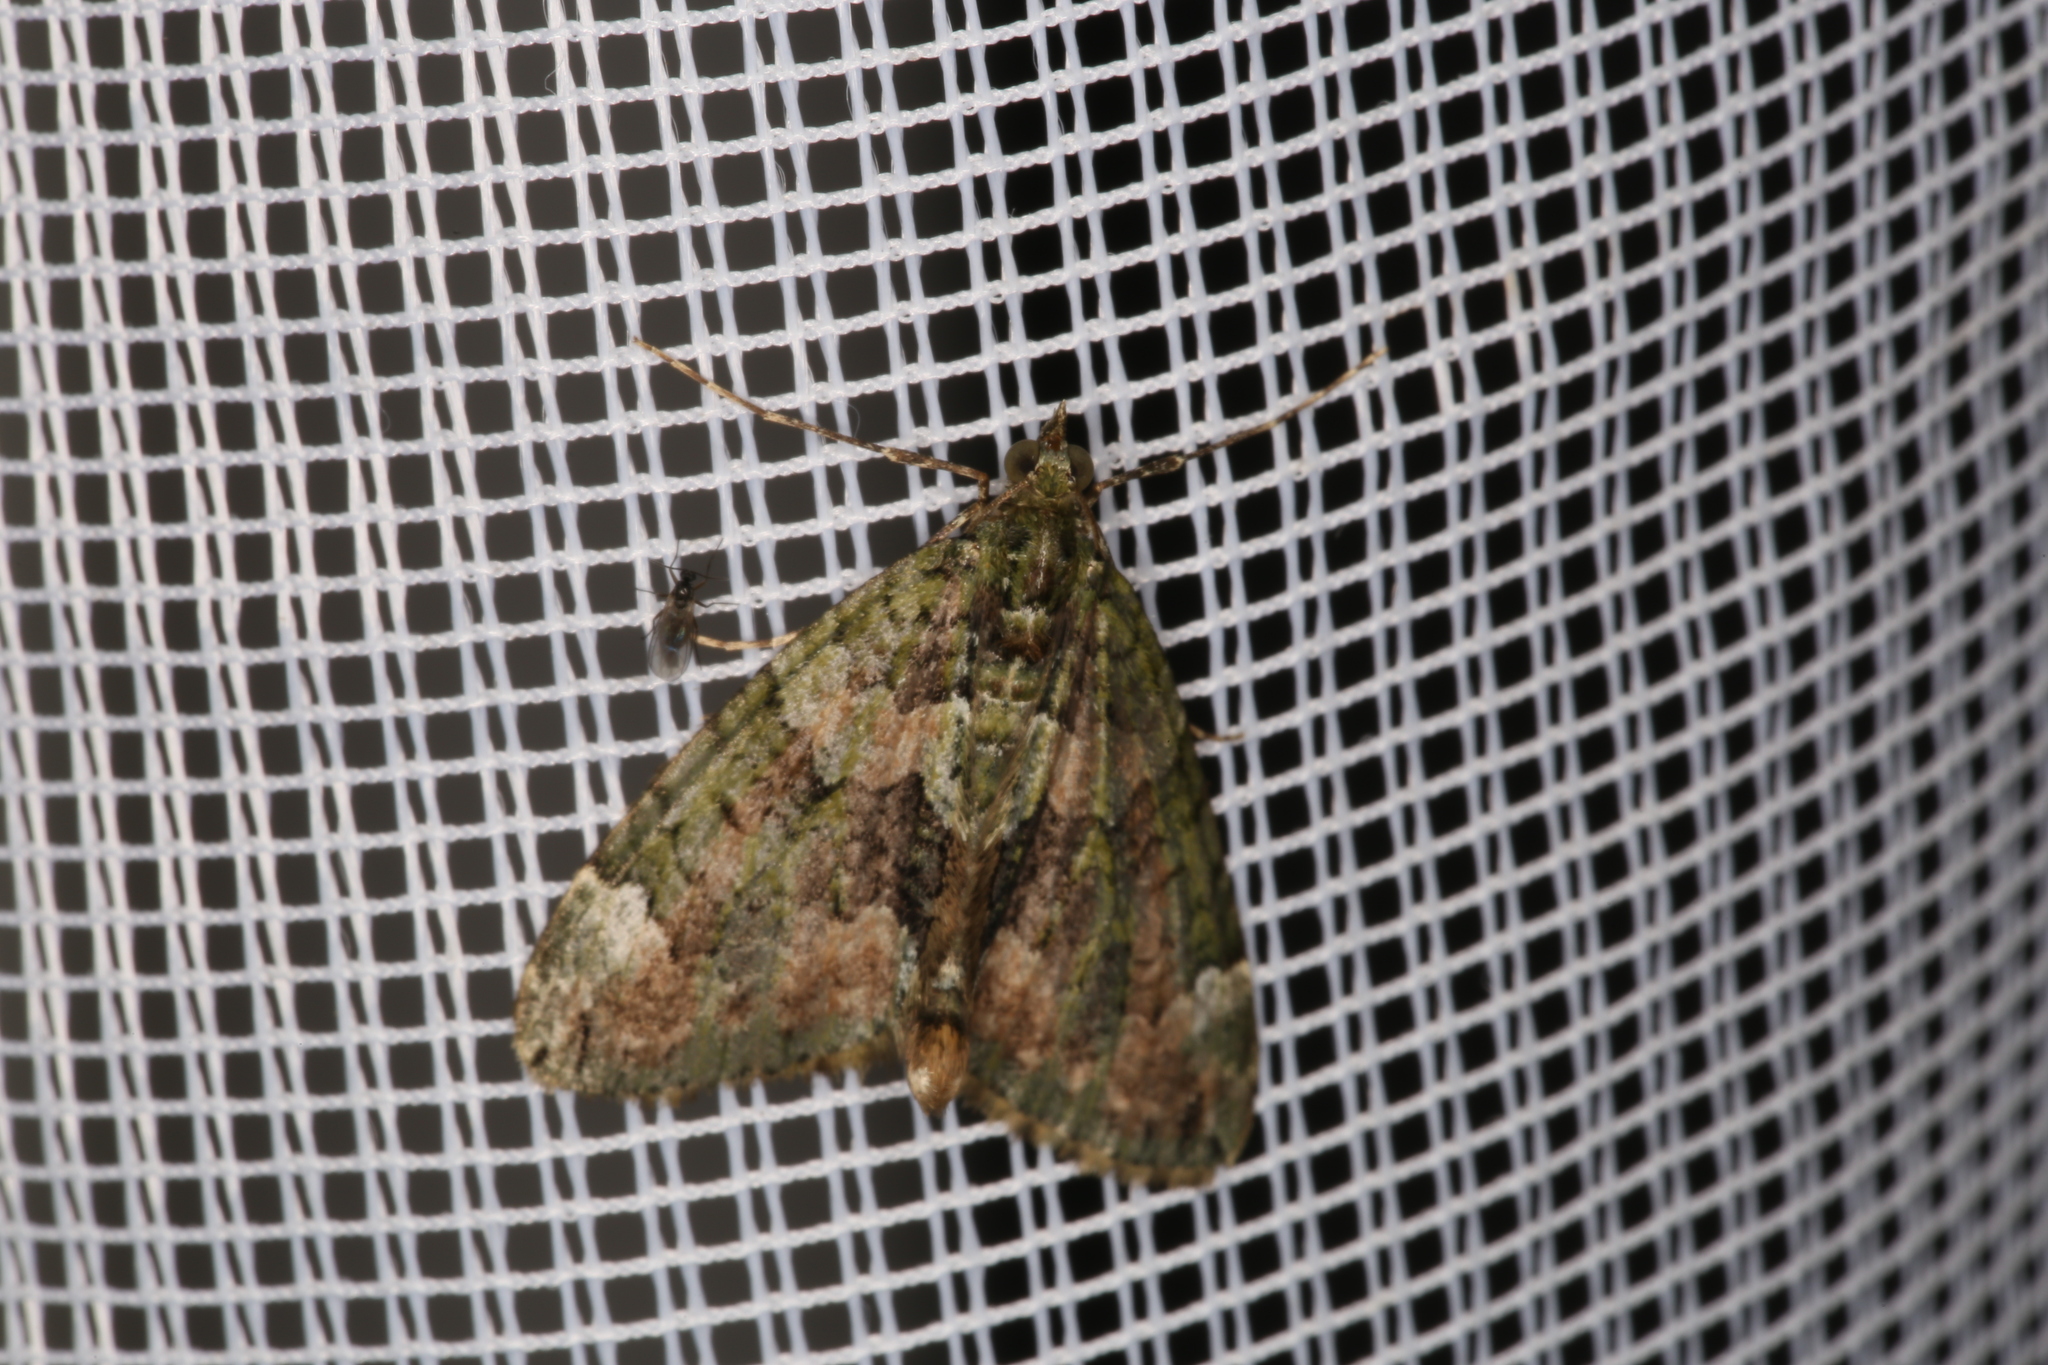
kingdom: Animalia
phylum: Arthropoda
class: Insecta
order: Lepidoptera
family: Geometridae
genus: Chloroclysta
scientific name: Chloroclysta siterata
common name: Red-green carpet
